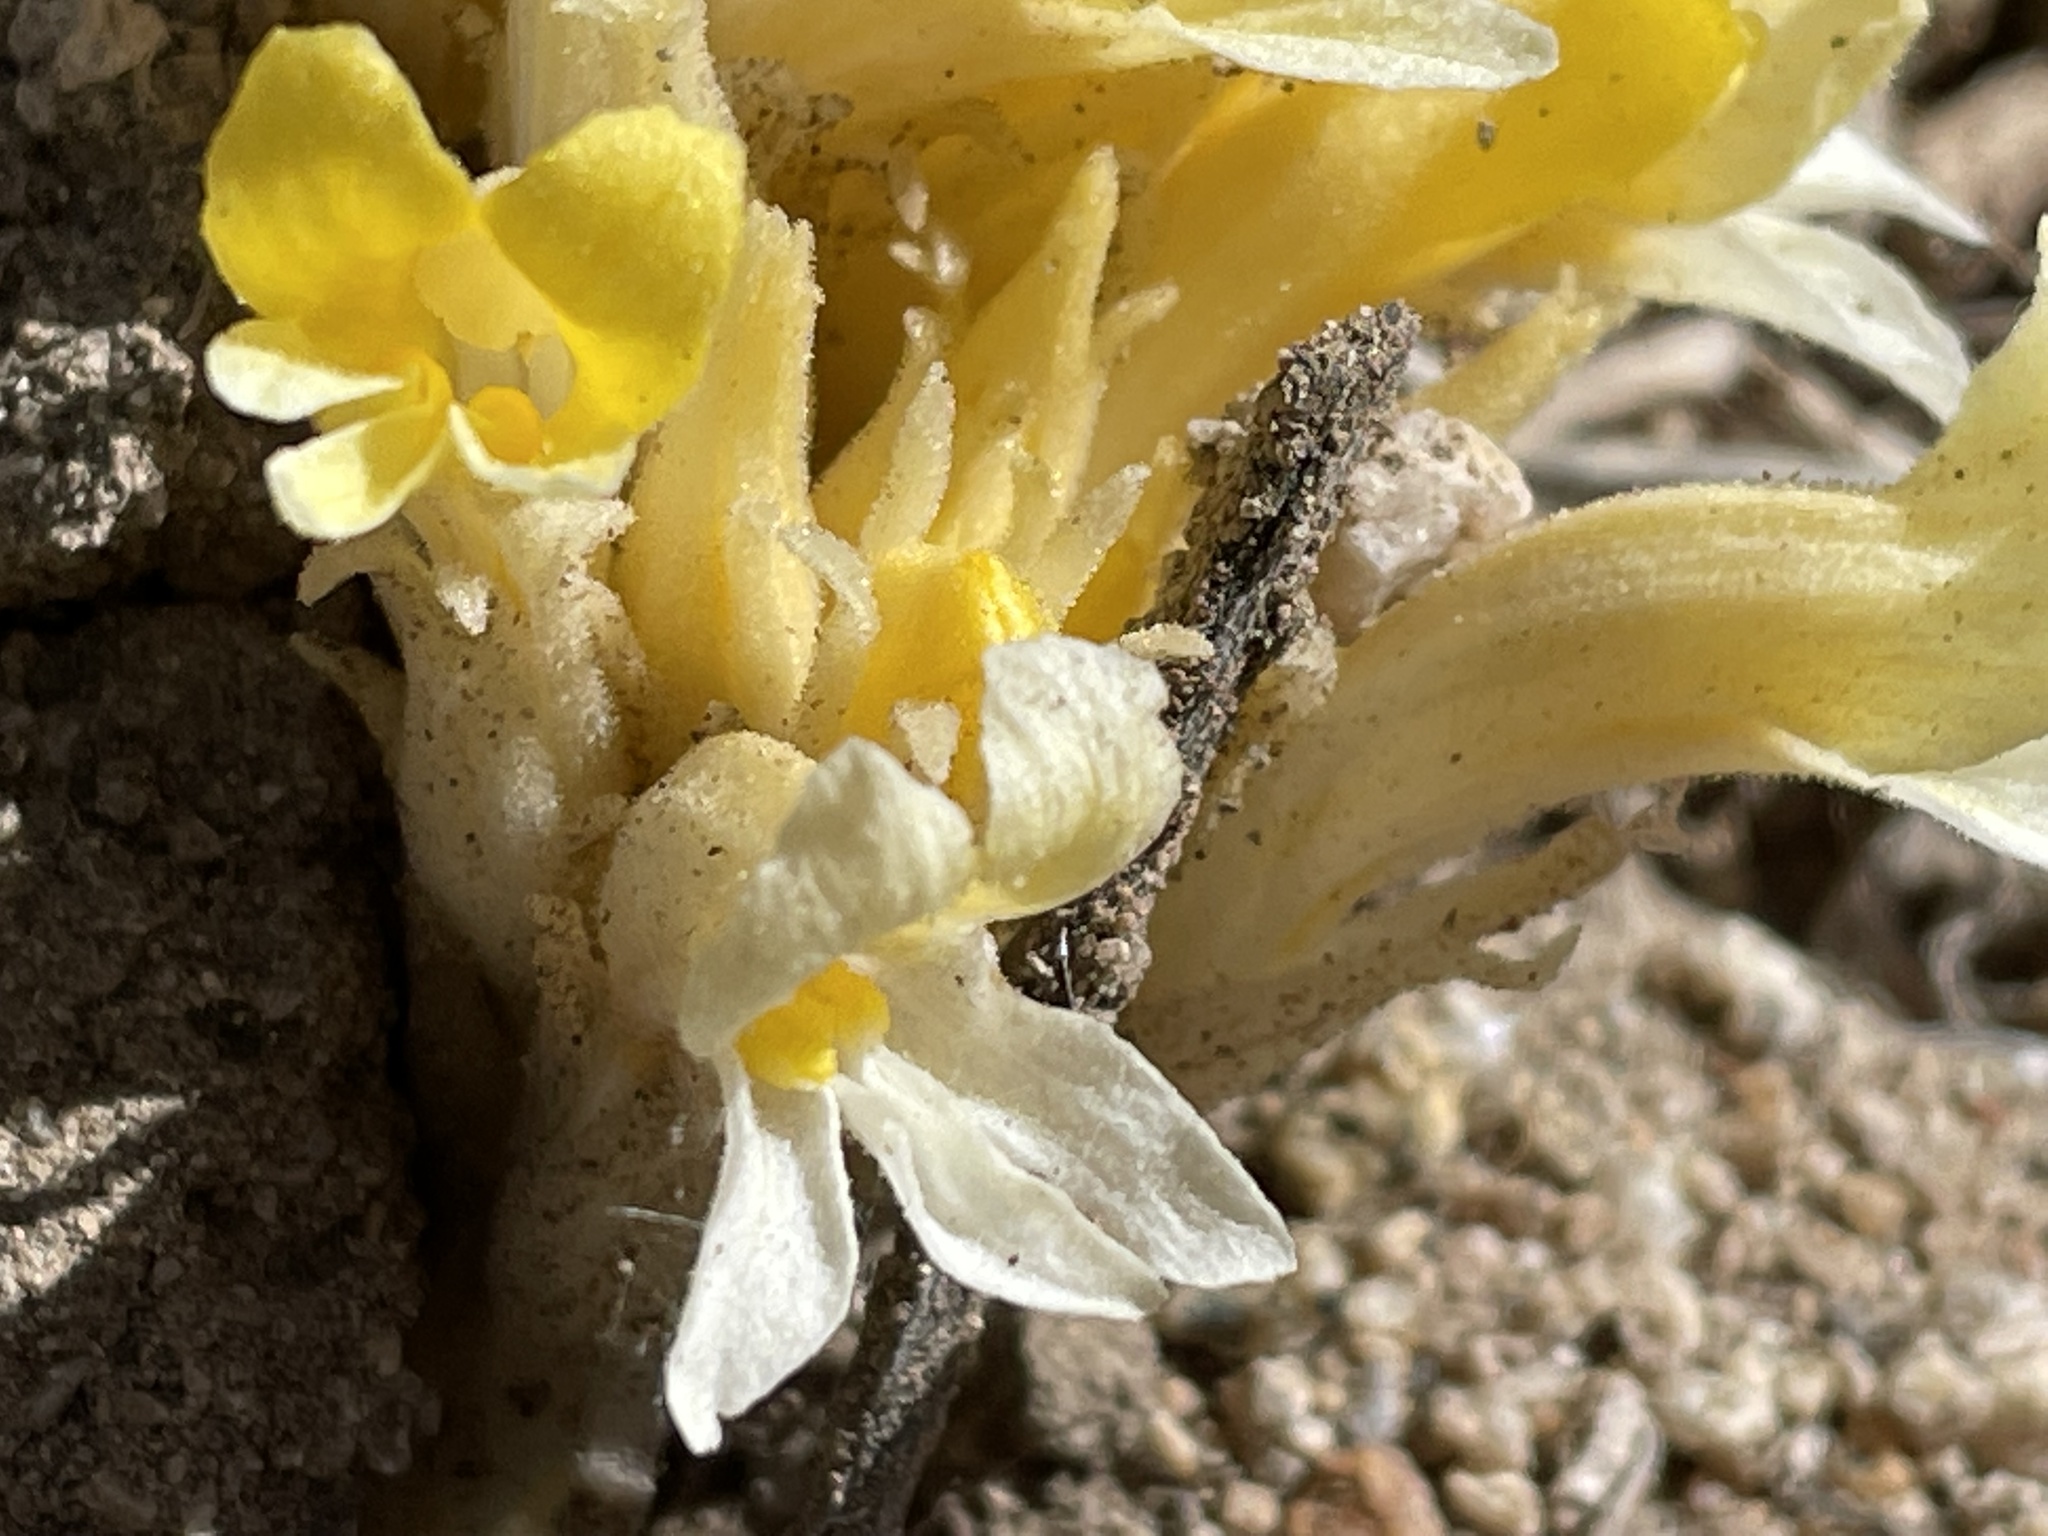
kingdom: Plantae
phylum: Tracheophyta
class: Magnoliopsida
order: Lamiales
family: Orobanchaceae
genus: Aphyllon
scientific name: Aphyllon corymbosum
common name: Flat-top broomrape
